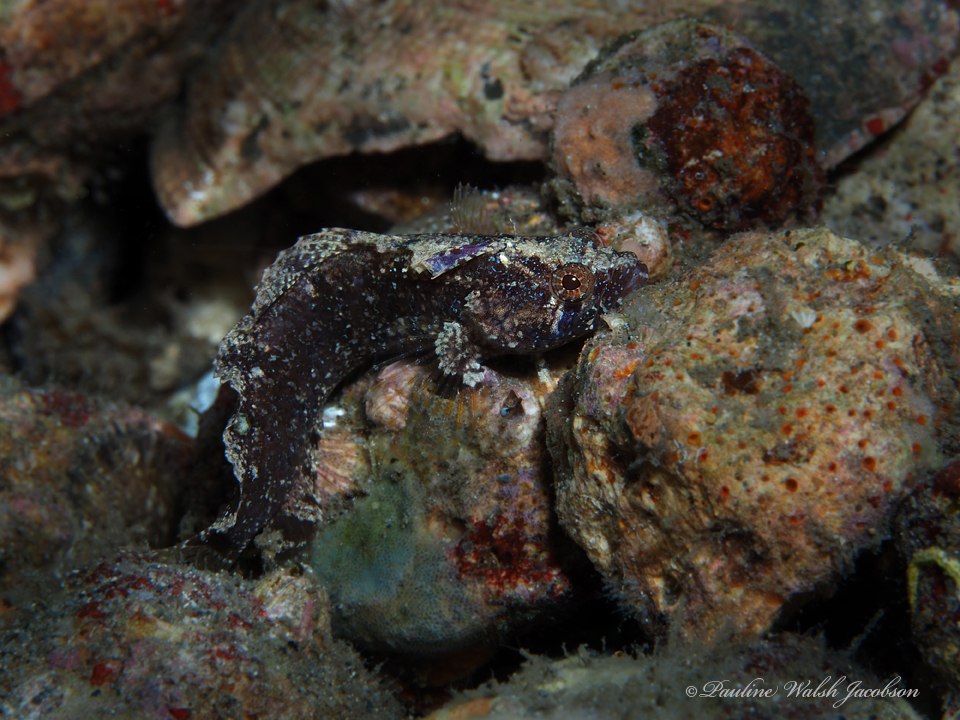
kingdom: Animalia
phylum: Chordata
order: Perciformes
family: Labrisomidae
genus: Paraclinus
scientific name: Paraclinus fasciatus
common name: Banded blenny
